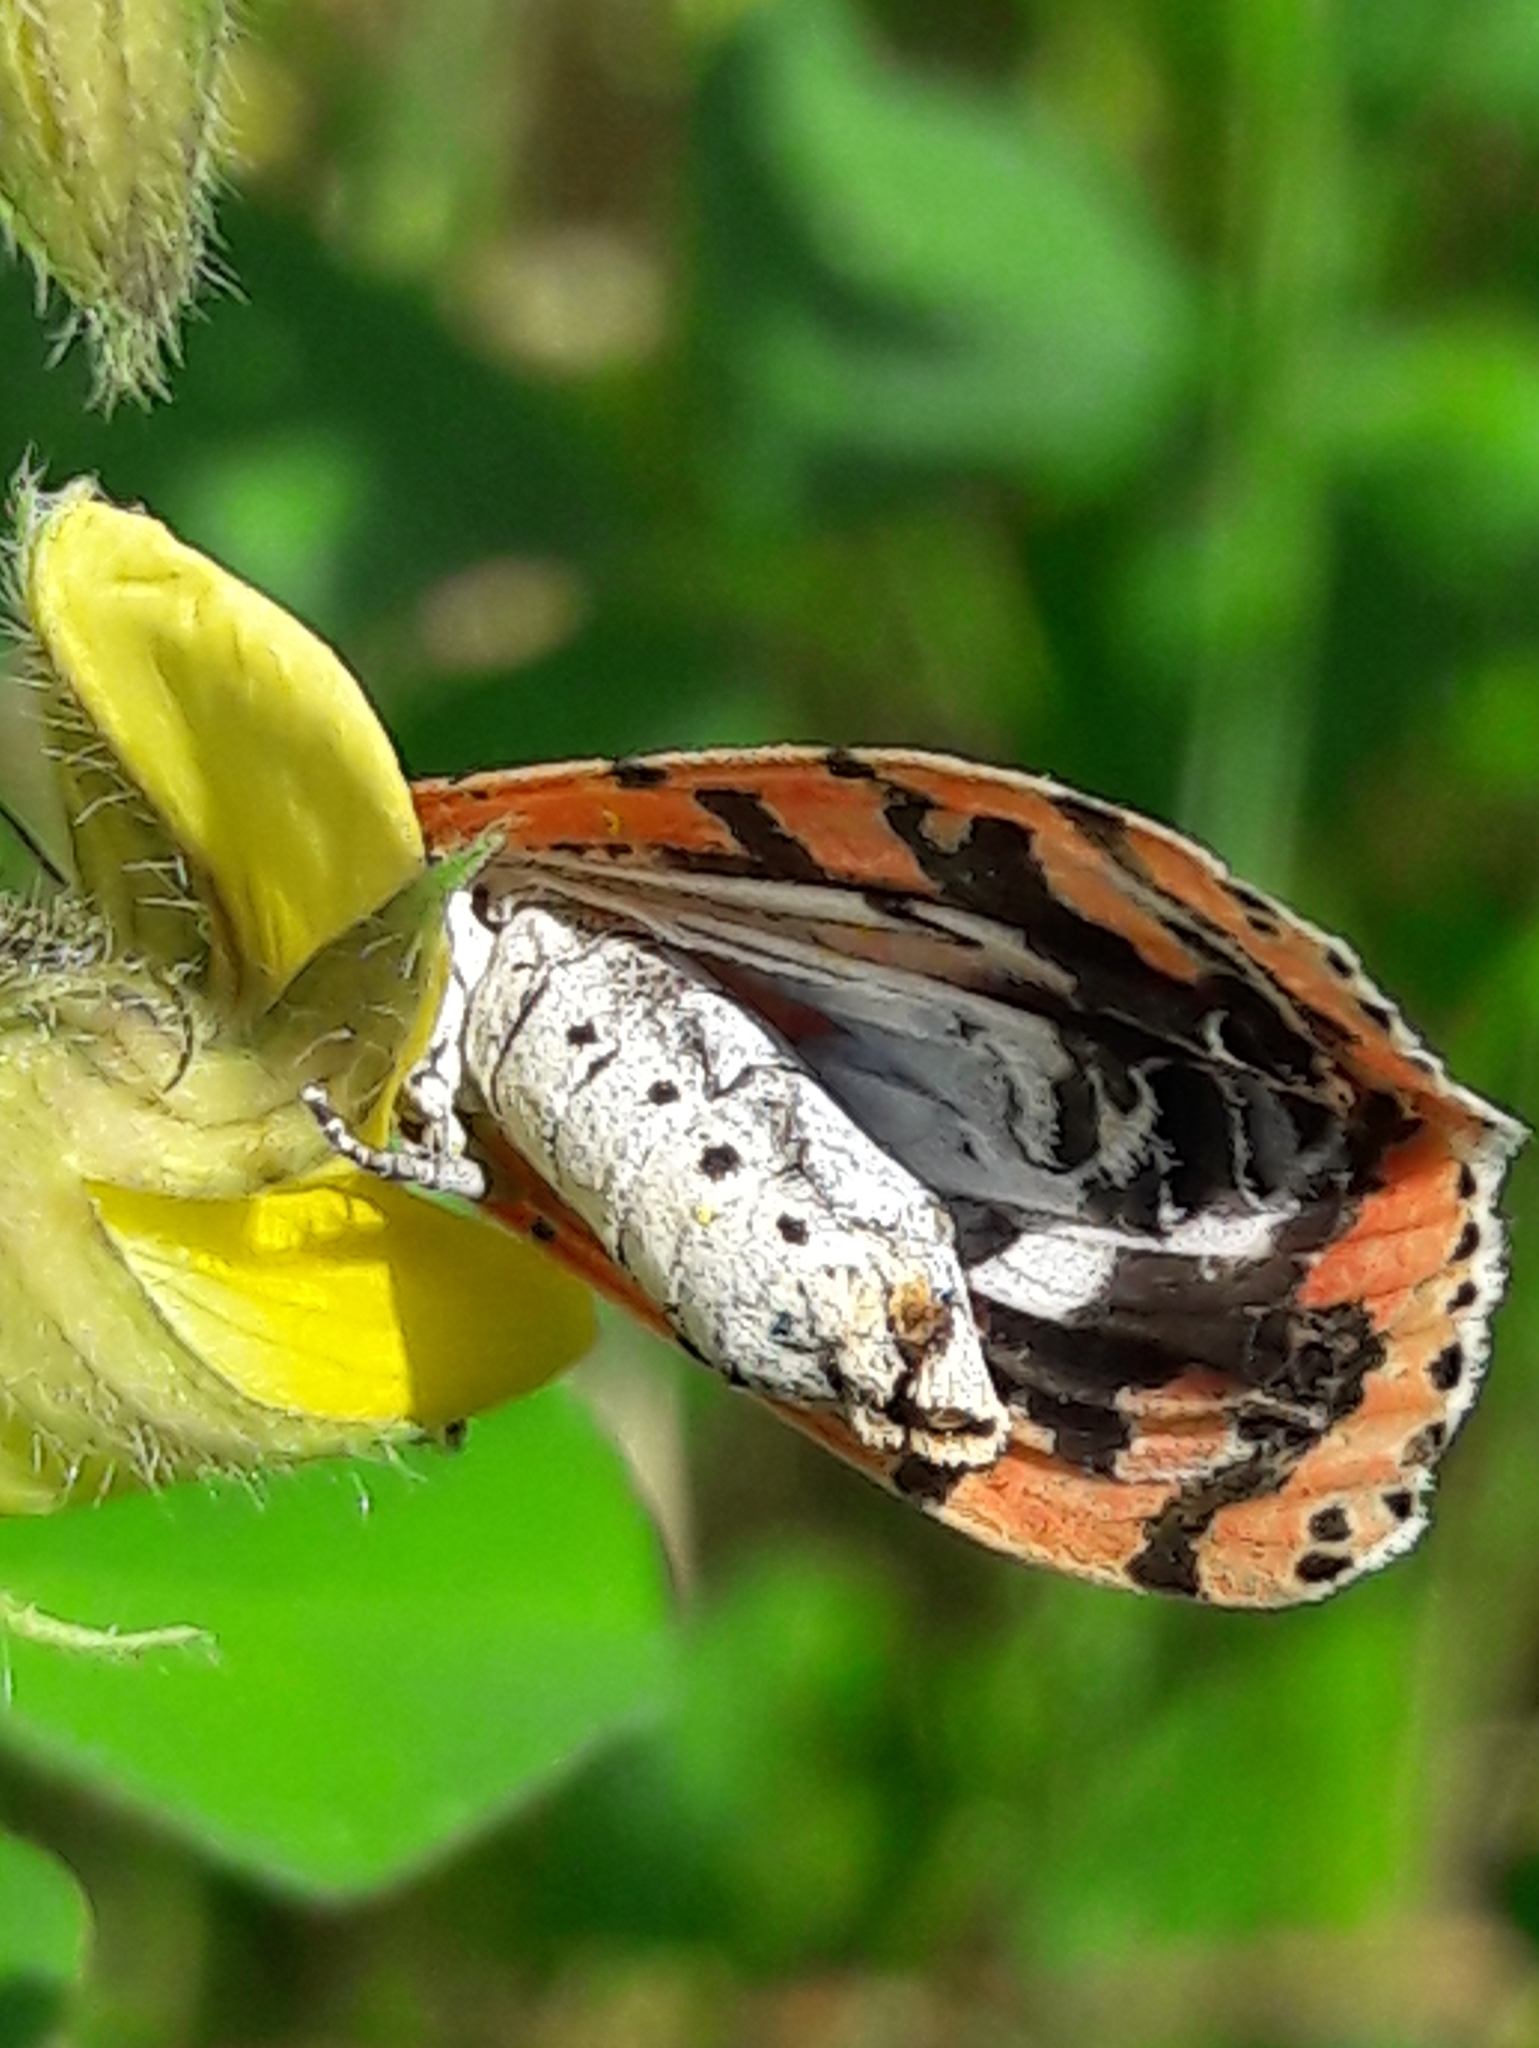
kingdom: Animalia
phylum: Arthropoda
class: Insecta
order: Lepidoptera
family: Erebidae
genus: Utetheisa
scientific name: Utetheisa ornatrix
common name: Beautiful utetheisa
